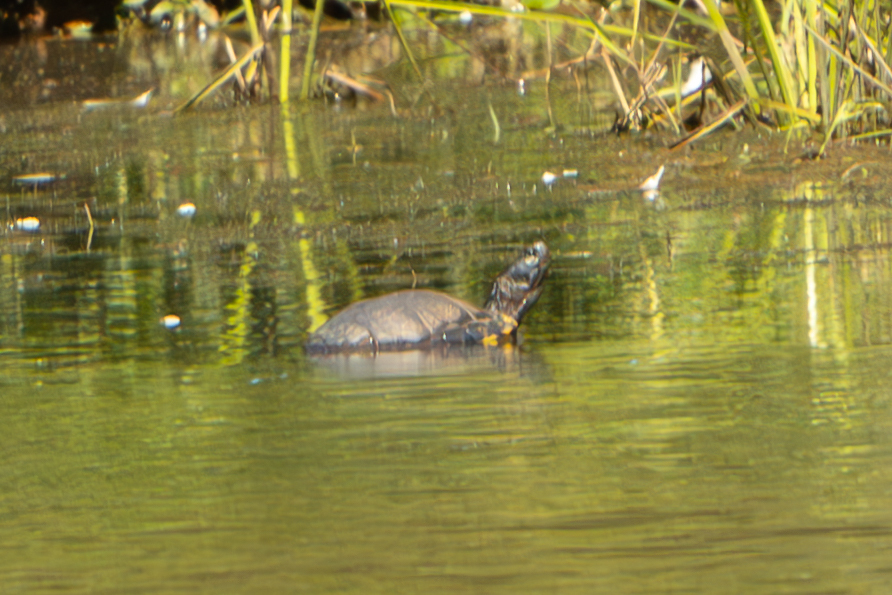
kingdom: Animalia
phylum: Chordata
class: Testudines
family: Emydidae
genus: Trachemys
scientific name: Trachemys scripta
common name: Slider
